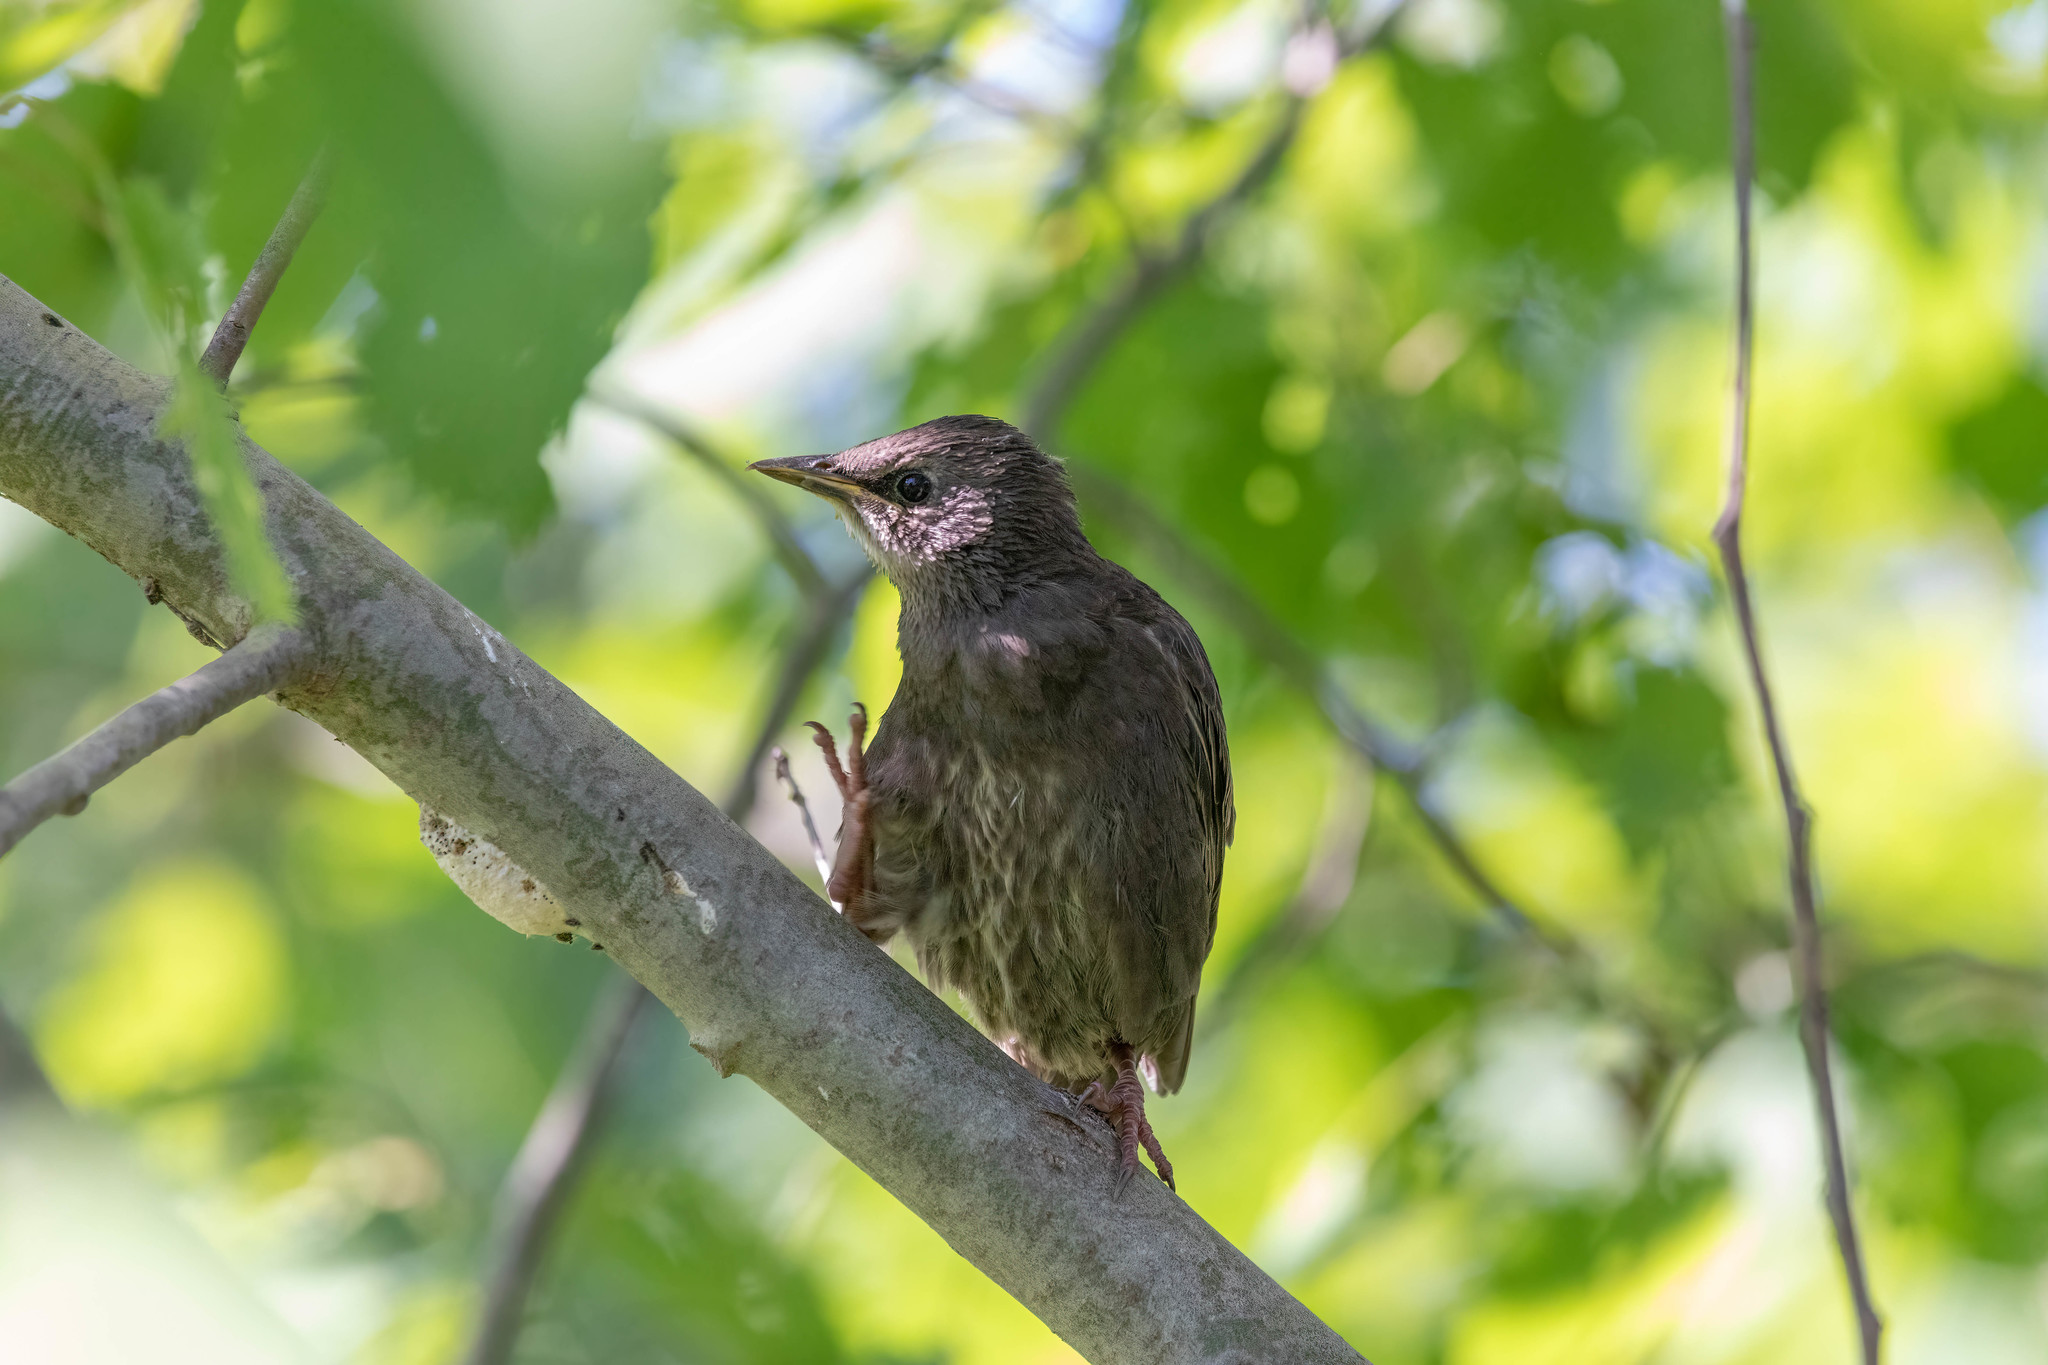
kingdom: Animalia
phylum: Chordata
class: Aves
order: Passeriformes
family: Sturnidae
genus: Sturnus
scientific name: Sturnus vulgaris
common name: Common starling
